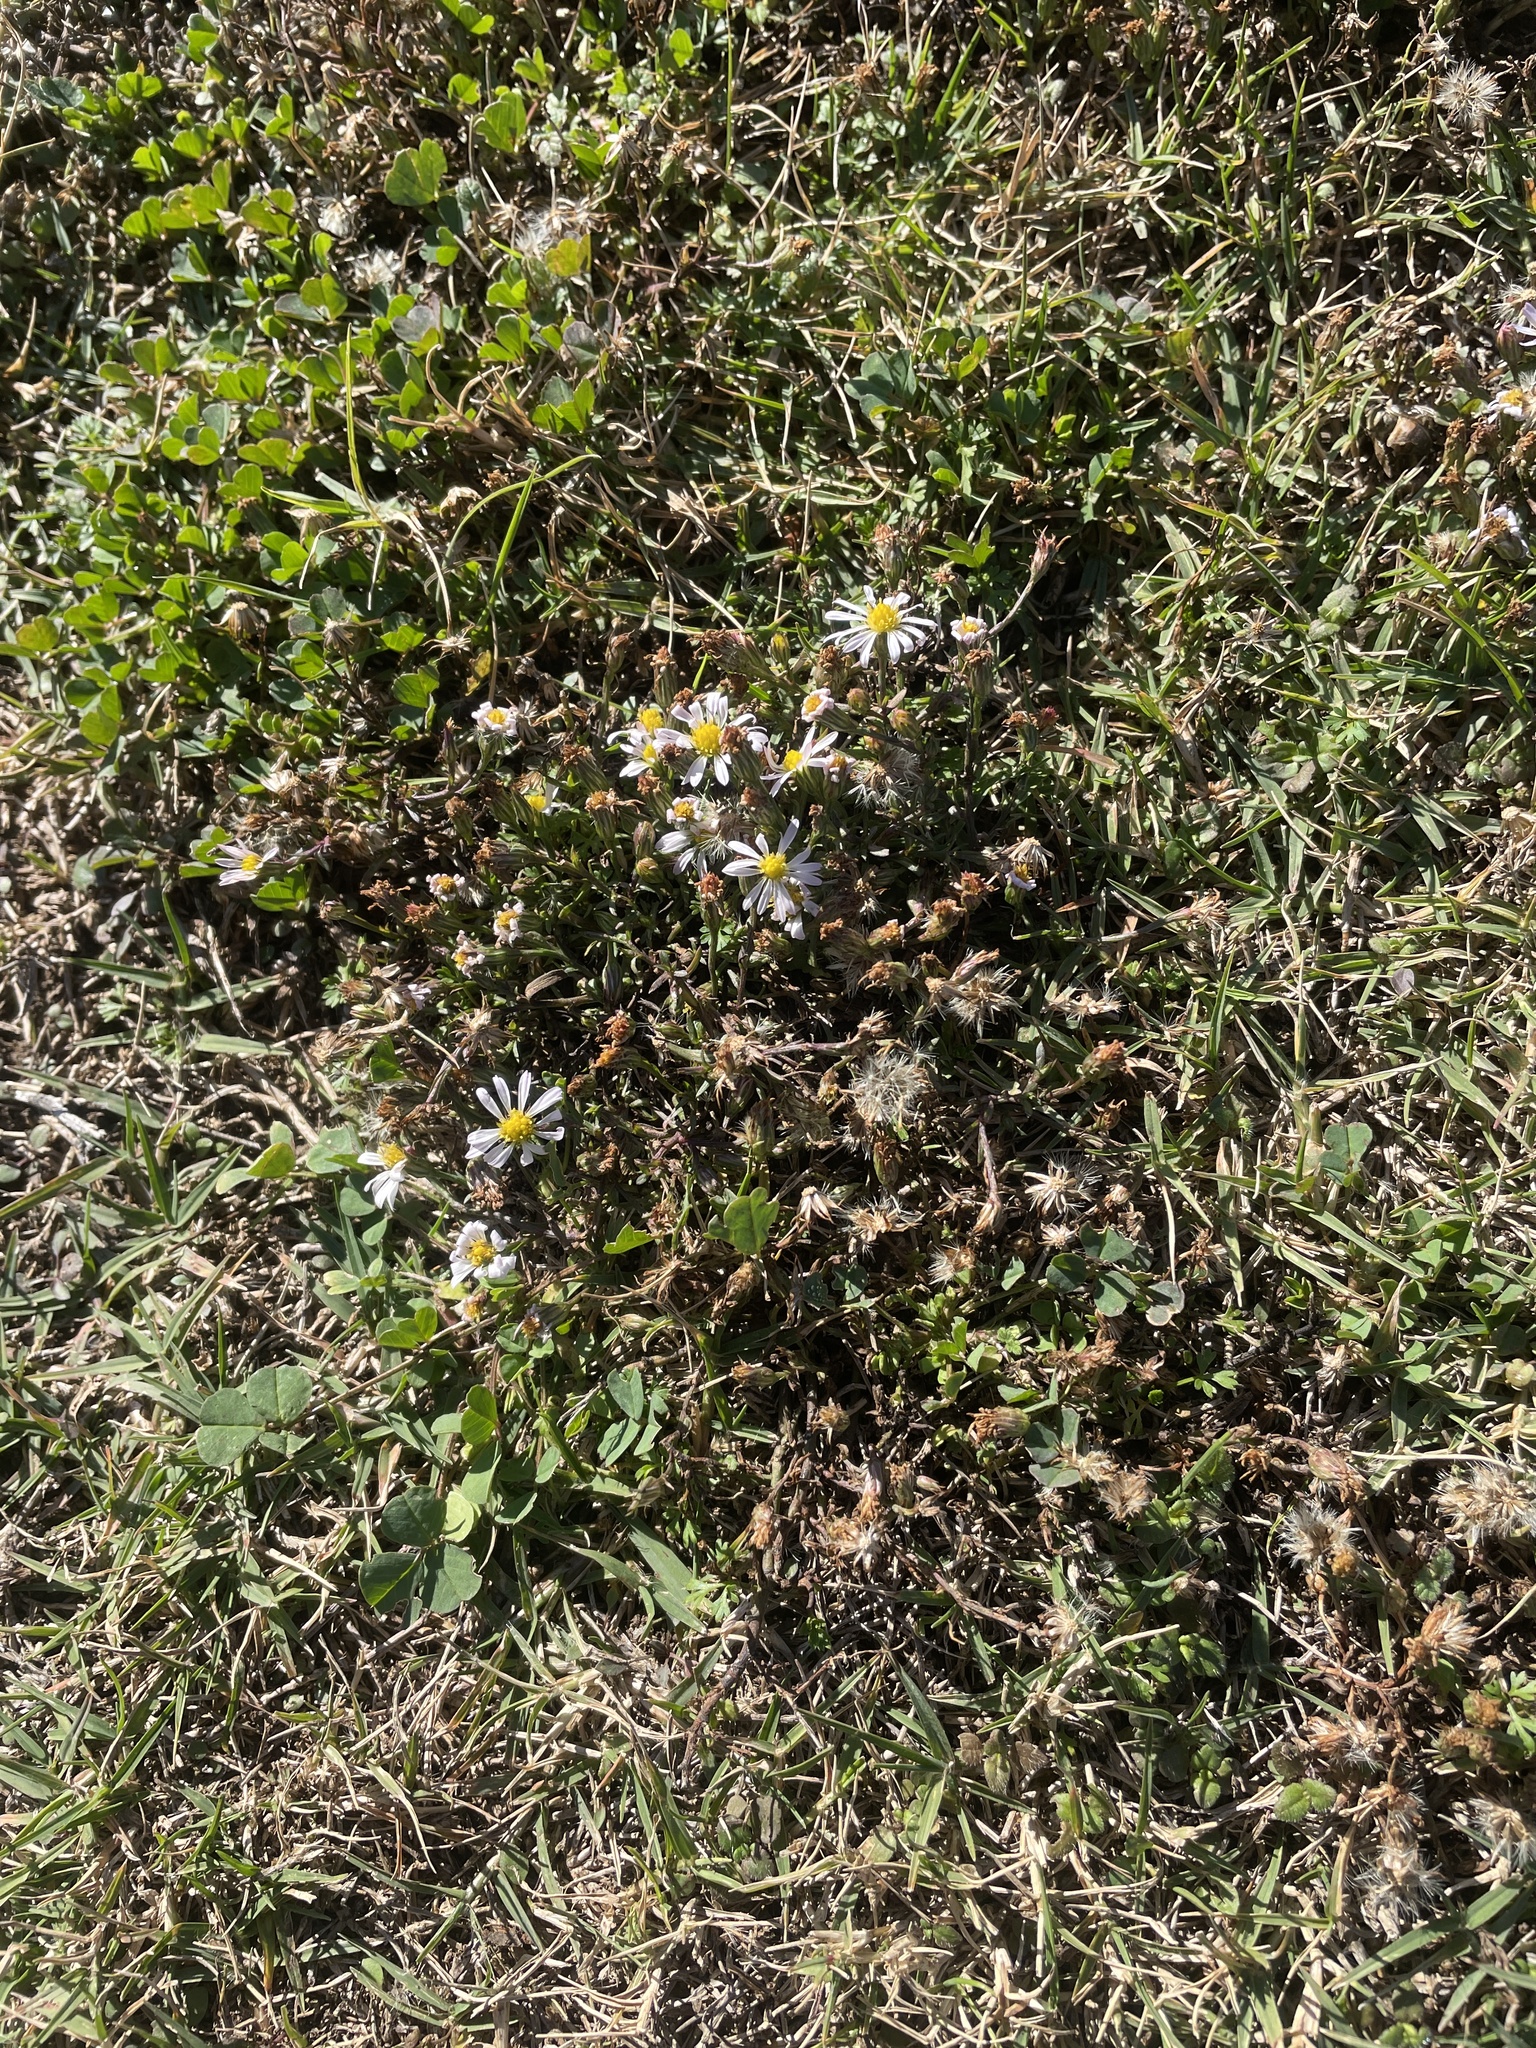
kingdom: Plantae
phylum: Tracheophyta
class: Magnoliopsida
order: Asterales
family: Asteraceae
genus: Symphyotrichum
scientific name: Symphyotrichum divaricatum
